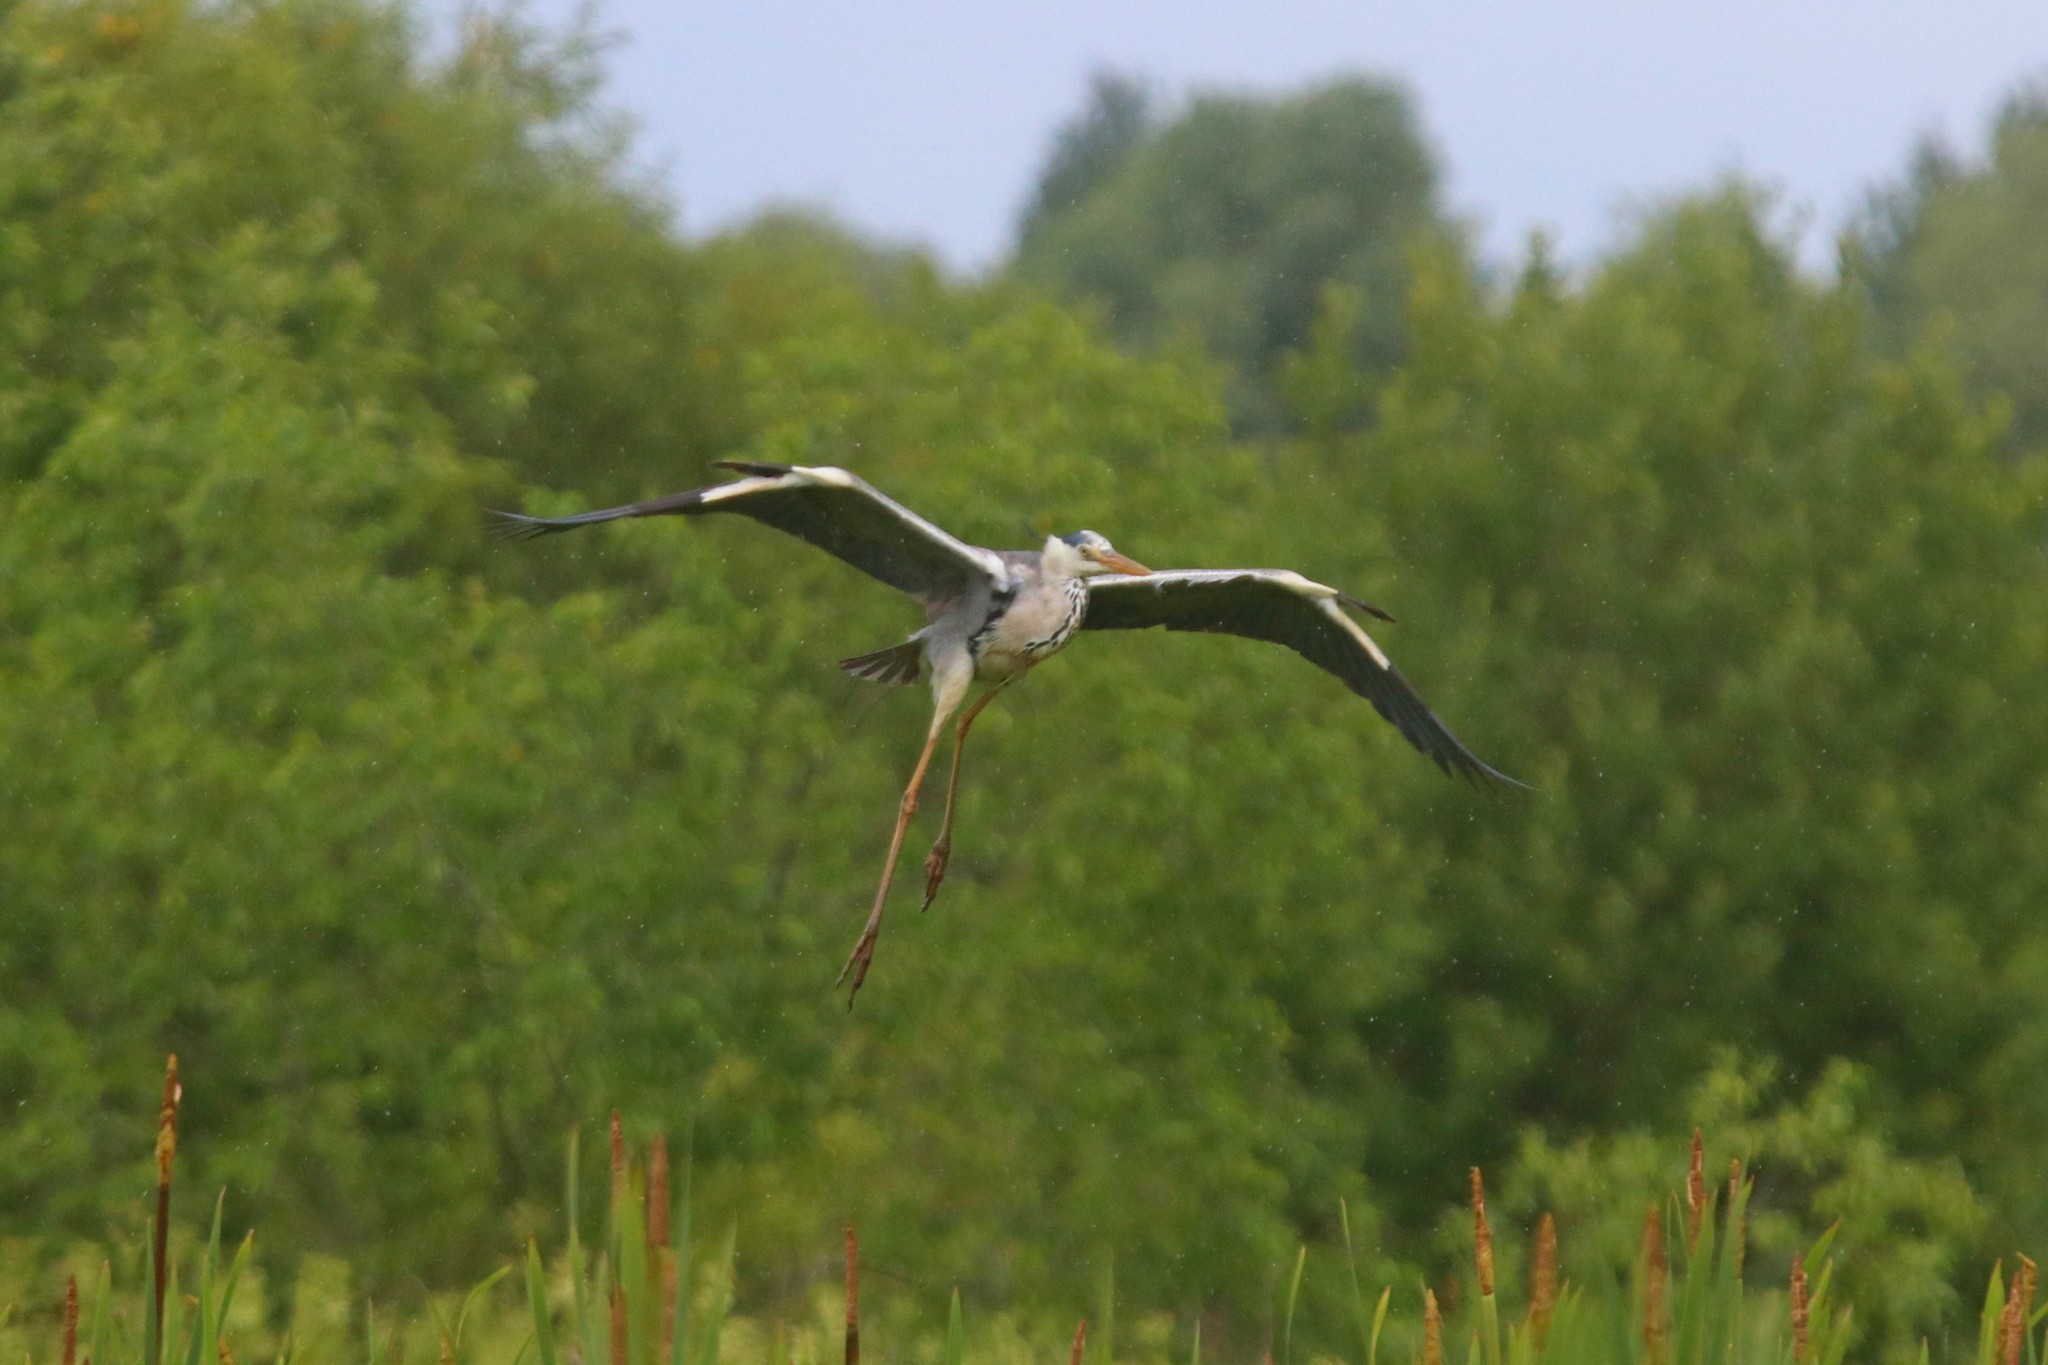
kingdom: Animalia
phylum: Chordata
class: Aves
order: Pelecaniformes
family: Ardeidae
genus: Ardea
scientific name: Ardea cinerea
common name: Grey heron
